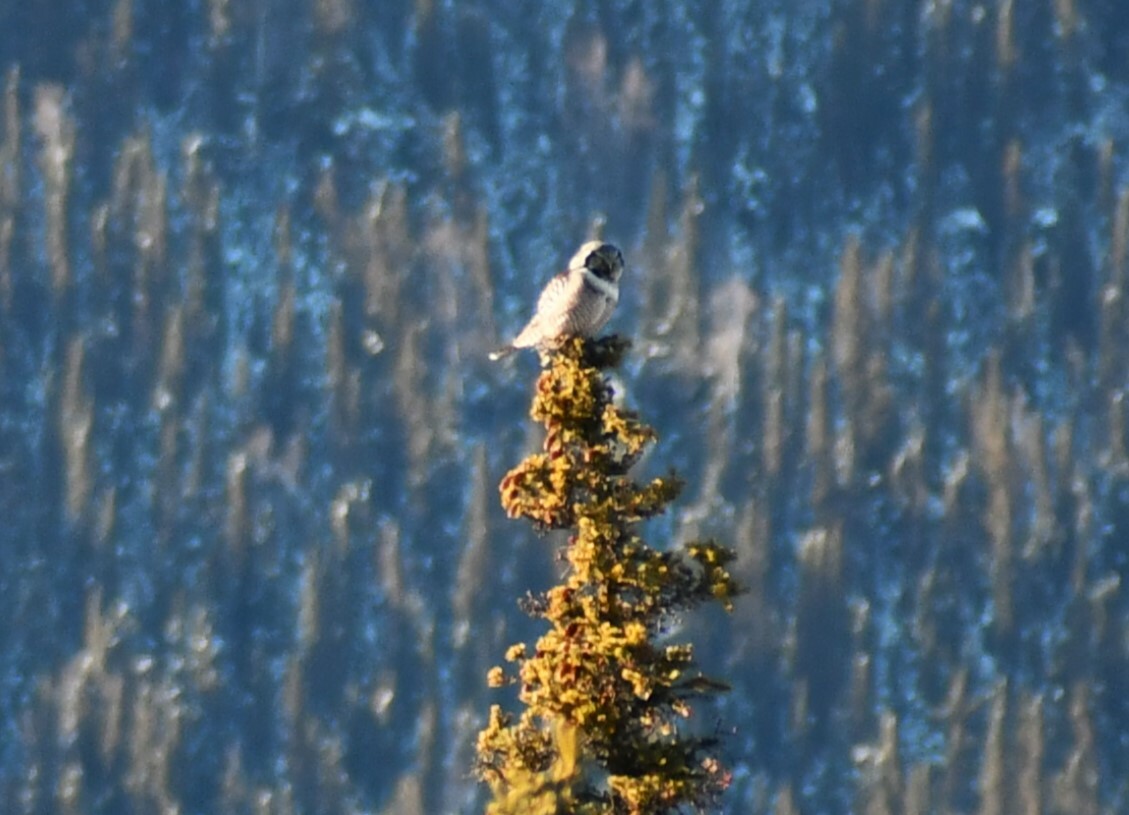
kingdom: Animalia
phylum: Chordata
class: Aves
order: Strigiformes
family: Strigidae
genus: Surnia
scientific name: Surnia ulula
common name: Northern hawk-owl
